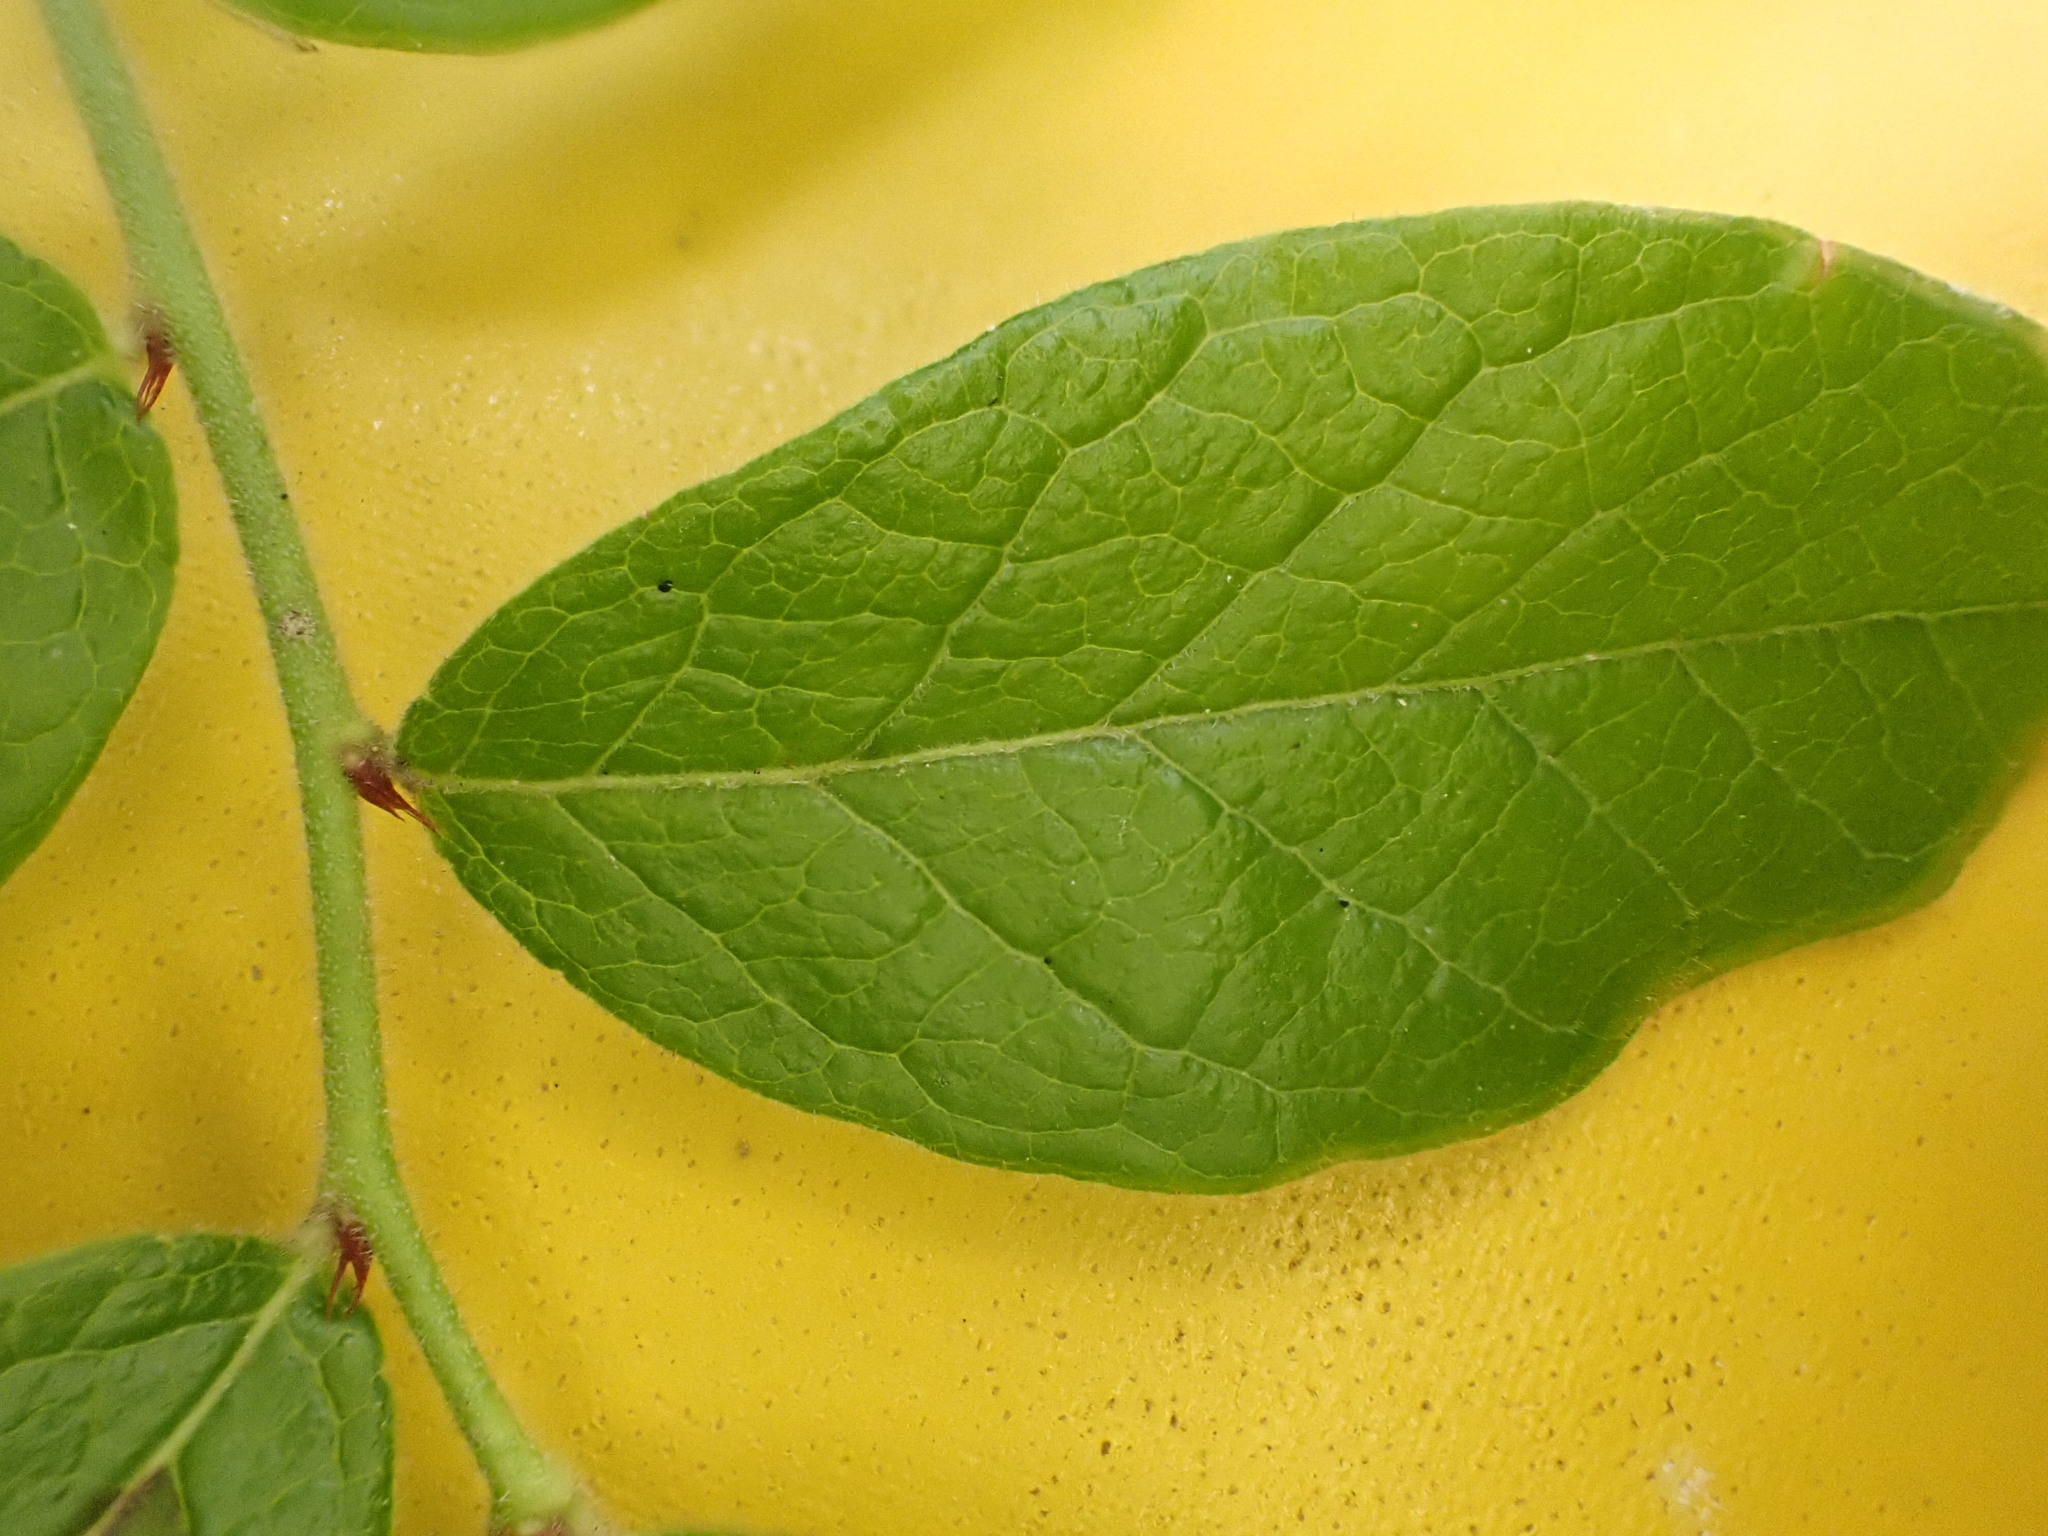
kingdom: Plantae
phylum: Tracheophyta
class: Magnoliopsida
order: Ericales
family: Ericaceae
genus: Vaccinium
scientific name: Vaccinium myrtilloides
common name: Canada blueberry
